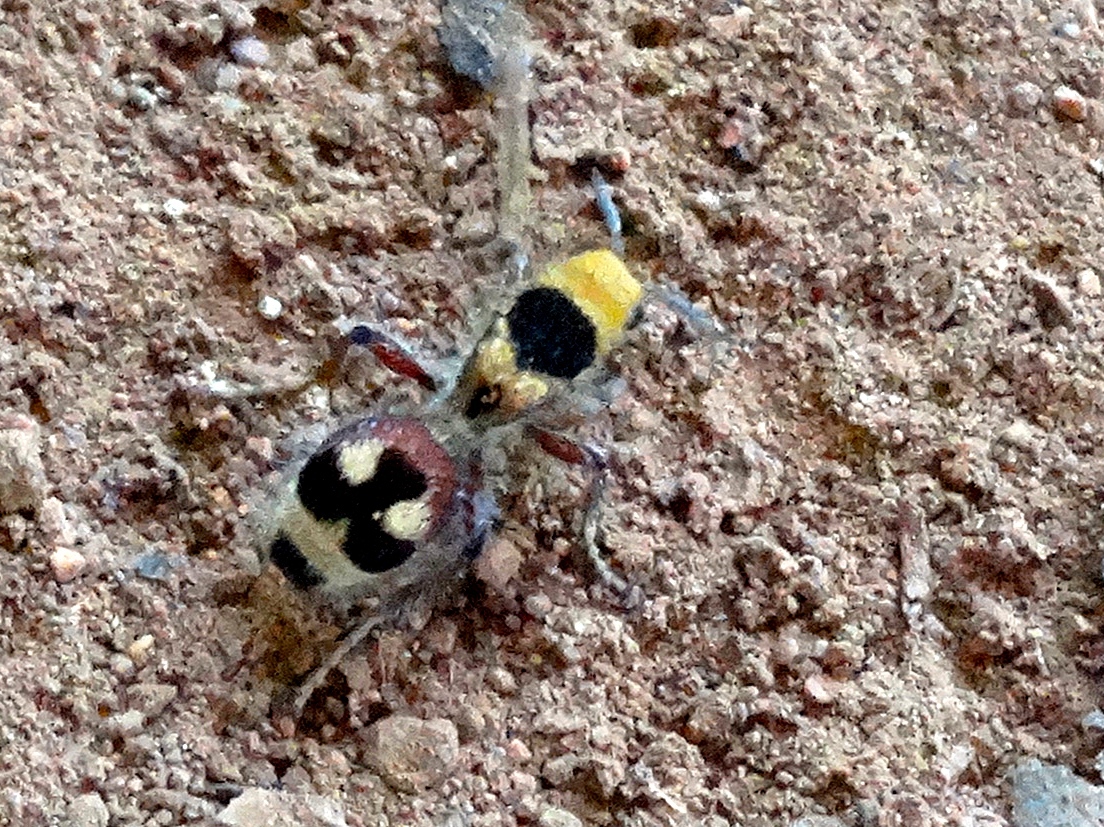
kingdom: Animalia
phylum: Arthropoda
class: Insecta
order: Hymenoptera
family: Mutillidae
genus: Dasymutilla
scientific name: Dasymutilla
